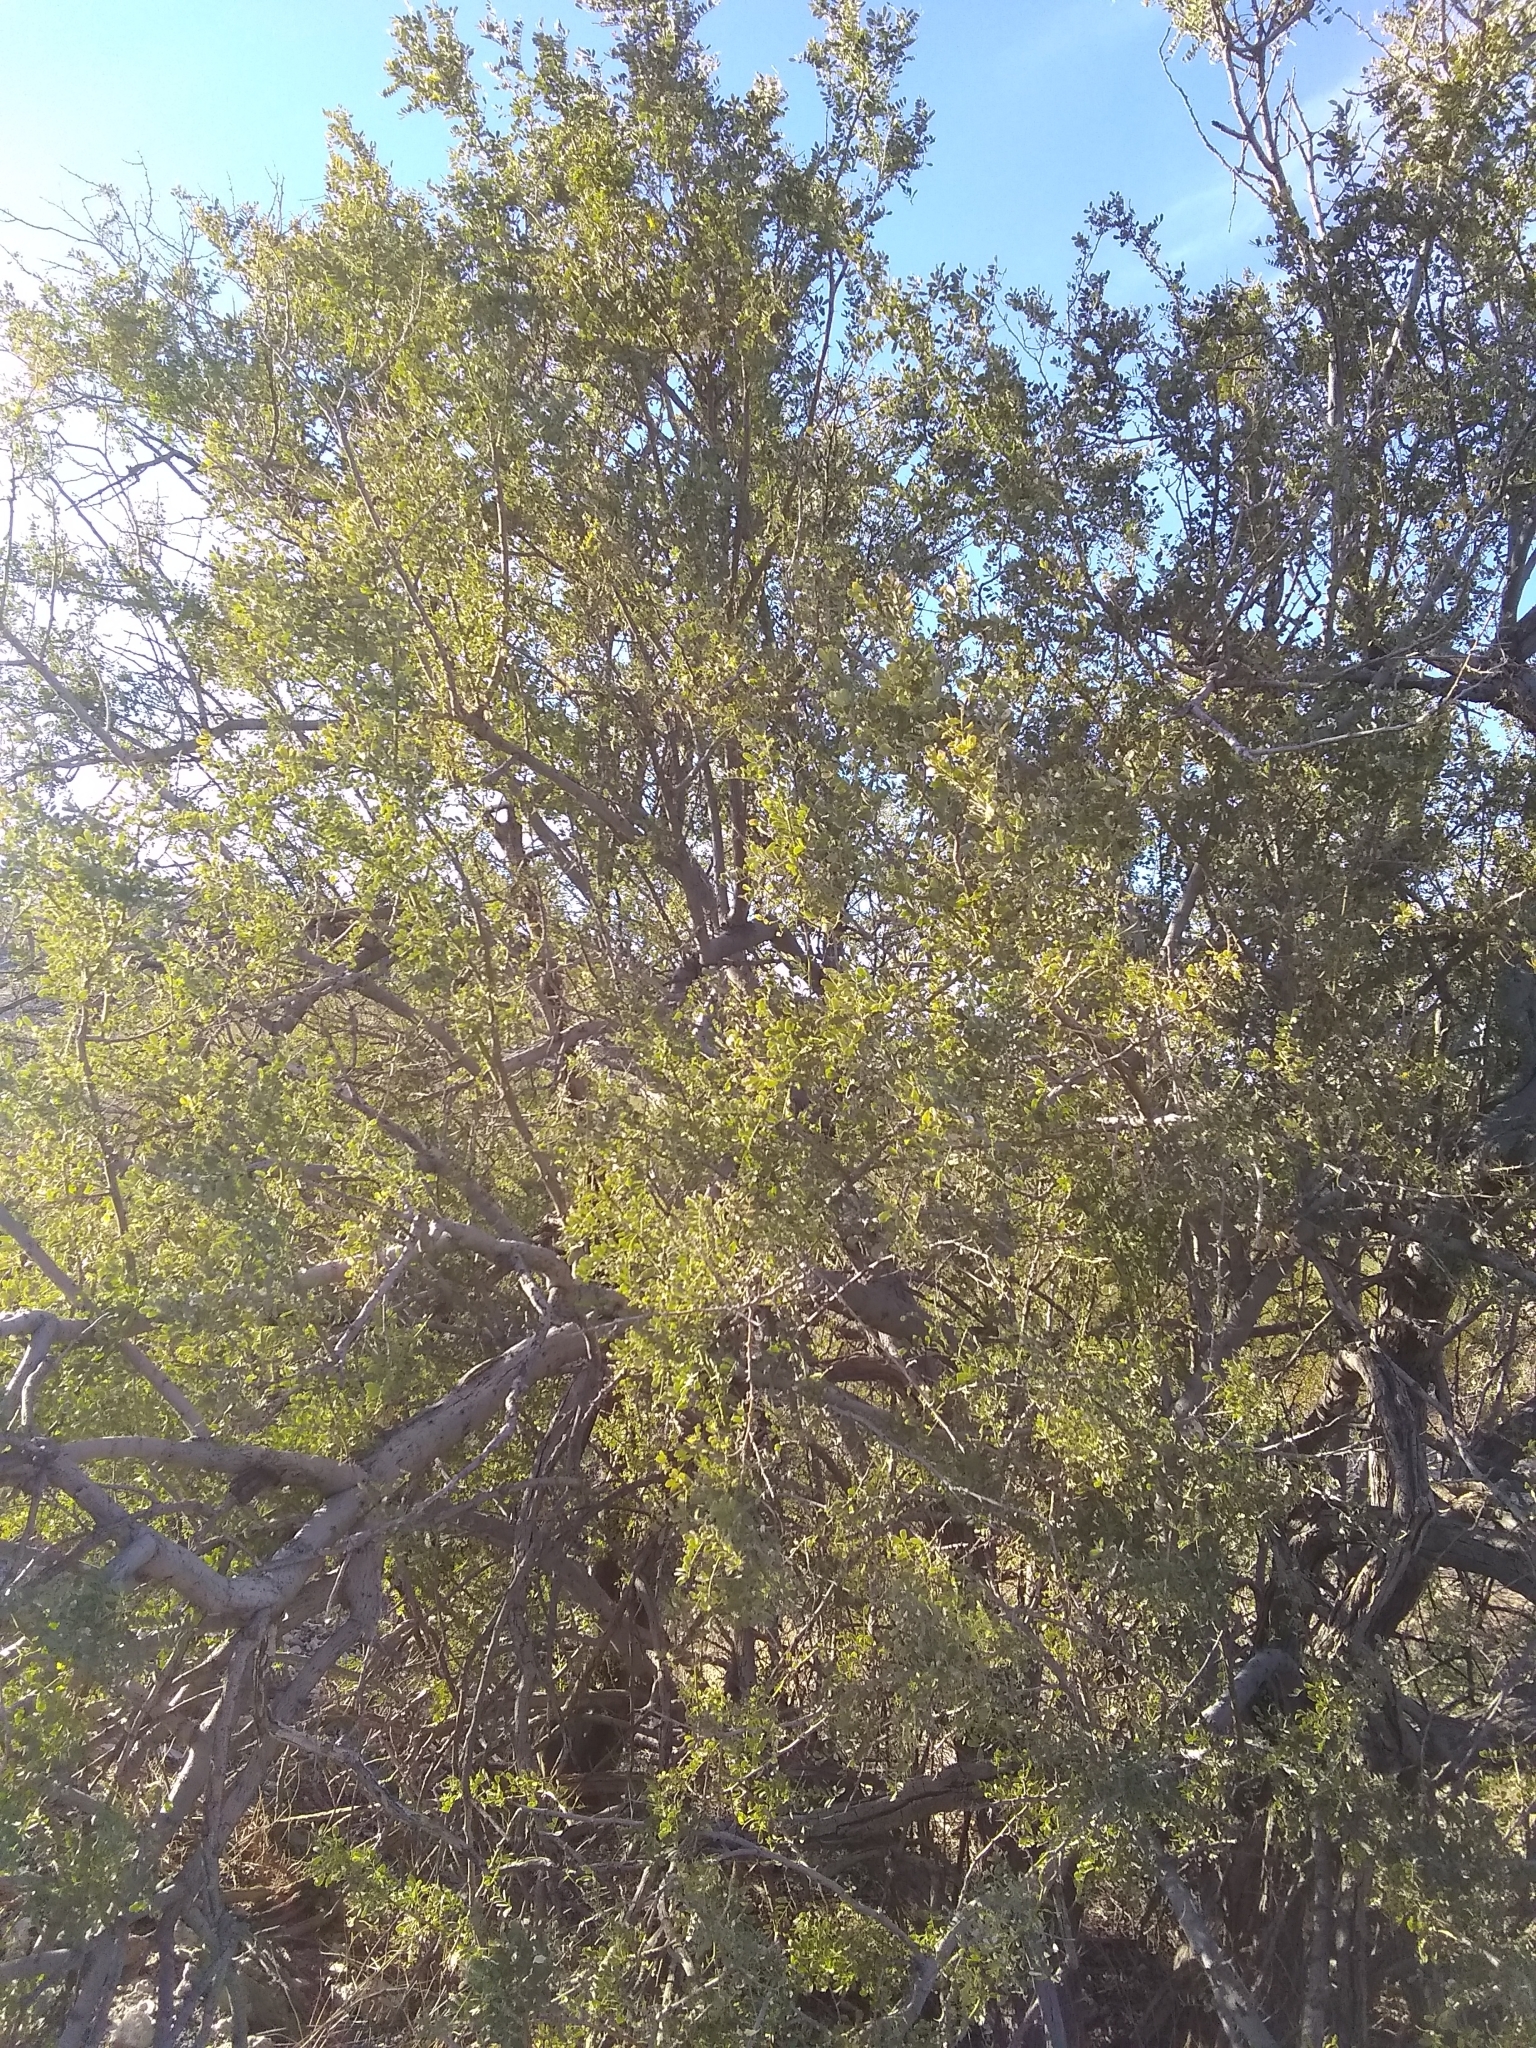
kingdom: Plantae
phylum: Tracheophyta
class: Magnoliopsida
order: Fabales
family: Fabaceae
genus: Olneya
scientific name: Olneya tesota
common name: Desert ironwood
